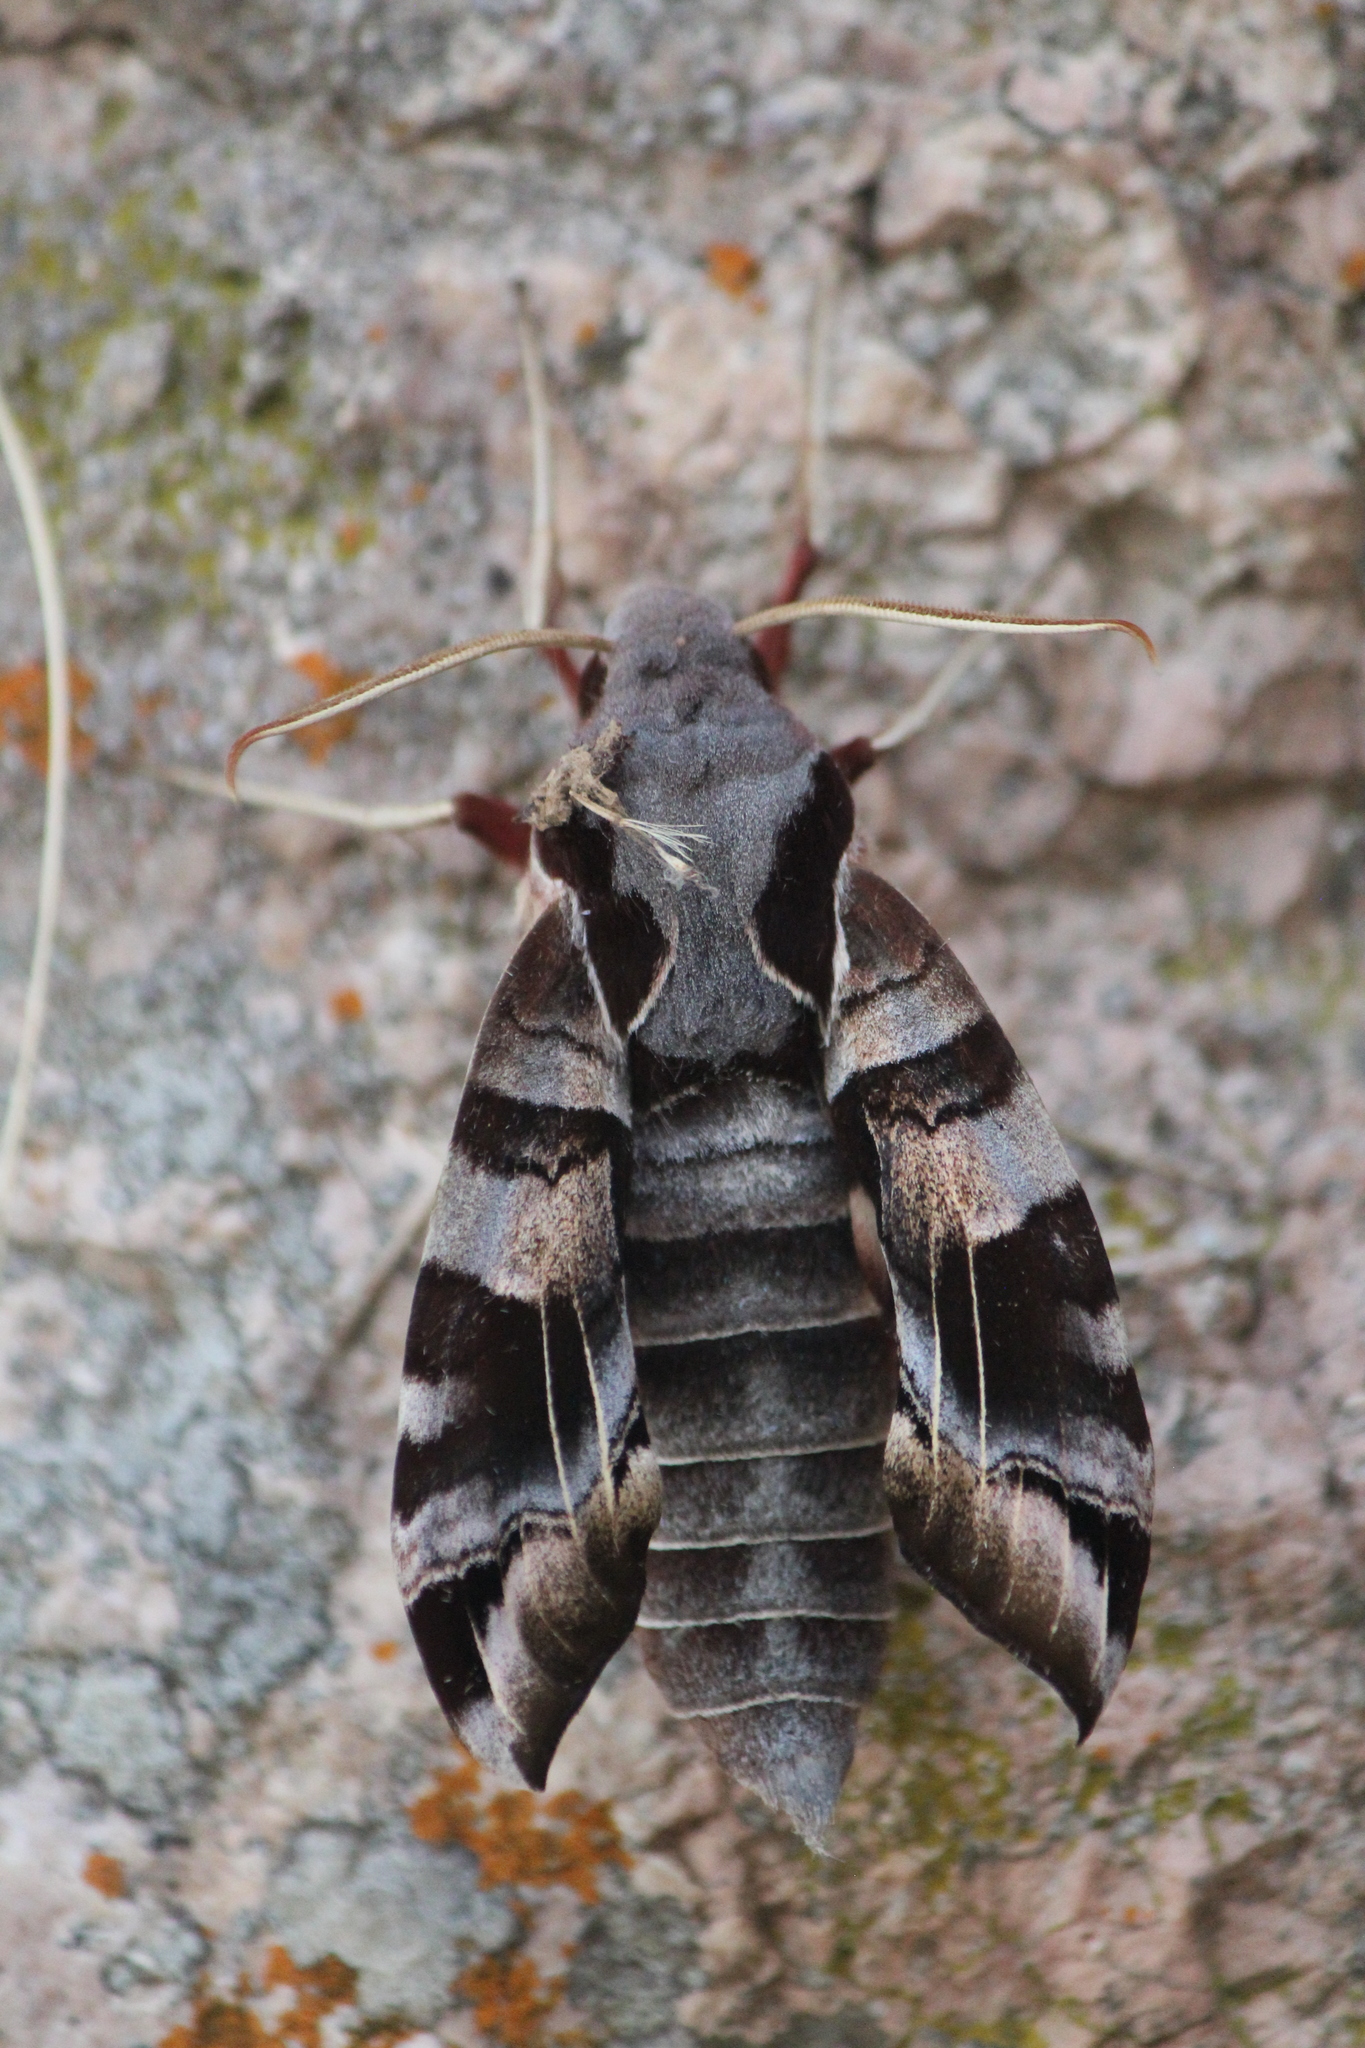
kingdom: Animalia
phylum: Arthropoda
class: Insecta
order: Lepidoptera
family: Sphingidae
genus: Eumorpha
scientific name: Eumorpha typhon
